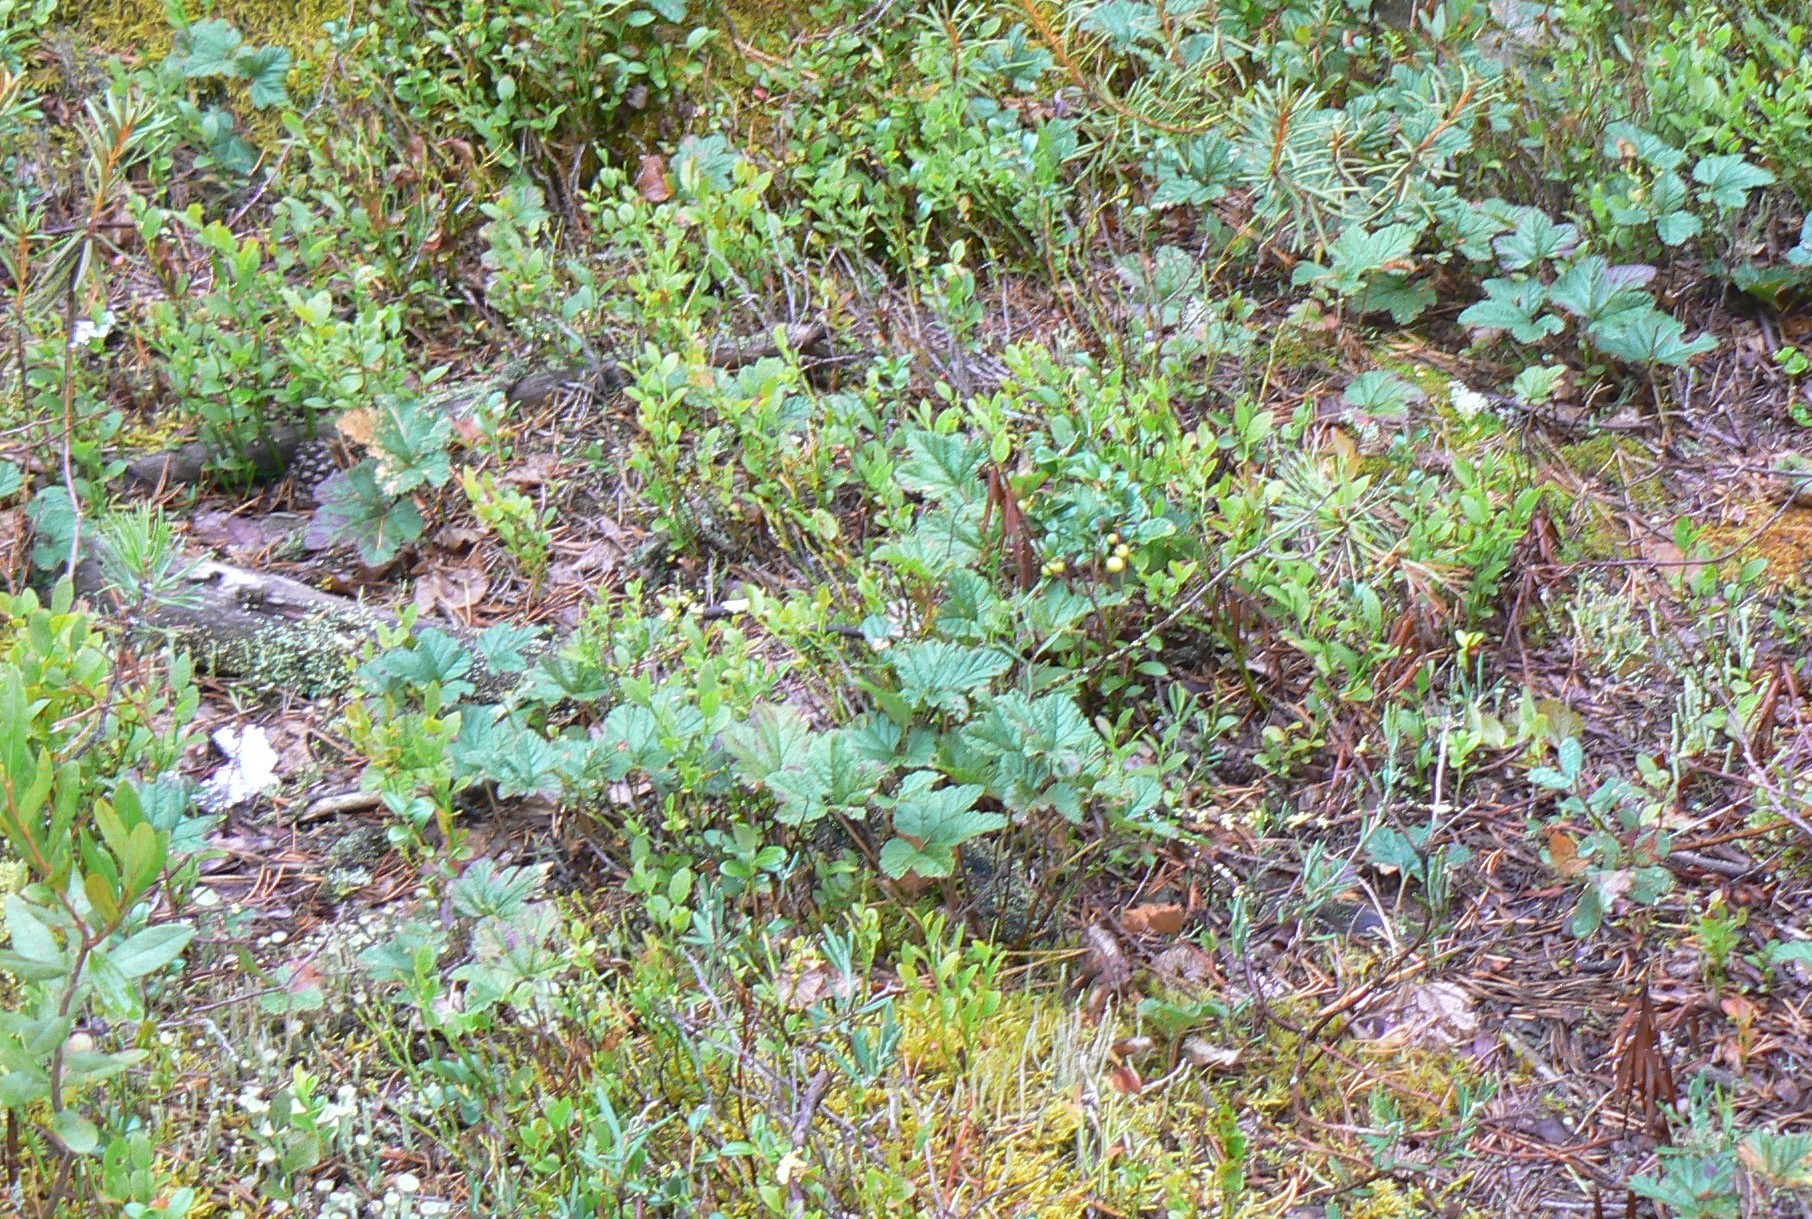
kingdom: Plantae
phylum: Tracheophyta
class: Magnoliopsida
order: Rosales
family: Rosaceae
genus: Rubus
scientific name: Rubus chamaemorus
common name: Cloudberry
